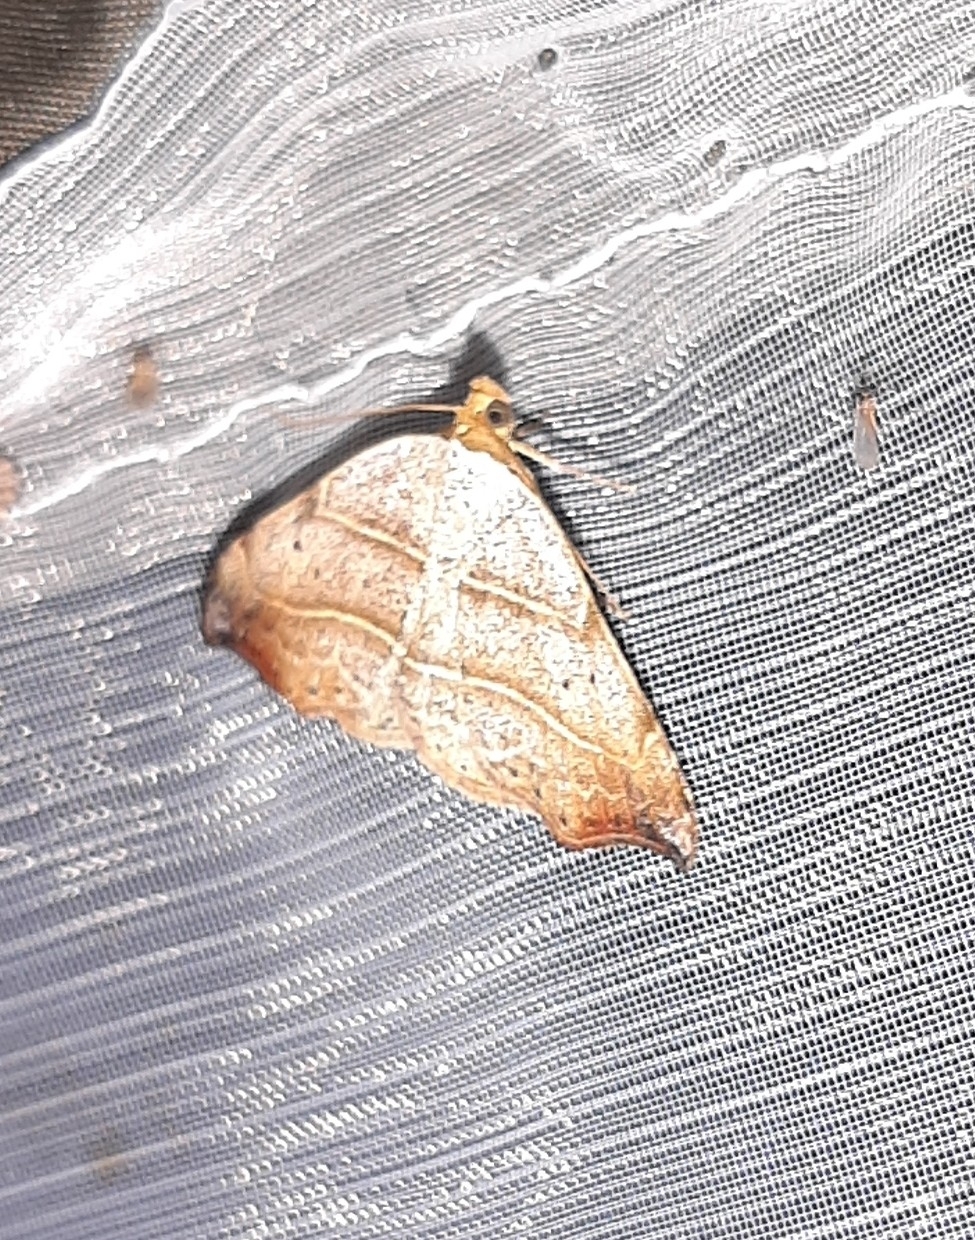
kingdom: Animalia
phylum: Arthropoda
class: Insecta
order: Lepidoptera
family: Erebidae
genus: Laspeyria
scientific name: Laspeyria flexula
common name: Beautiful hook-tip
